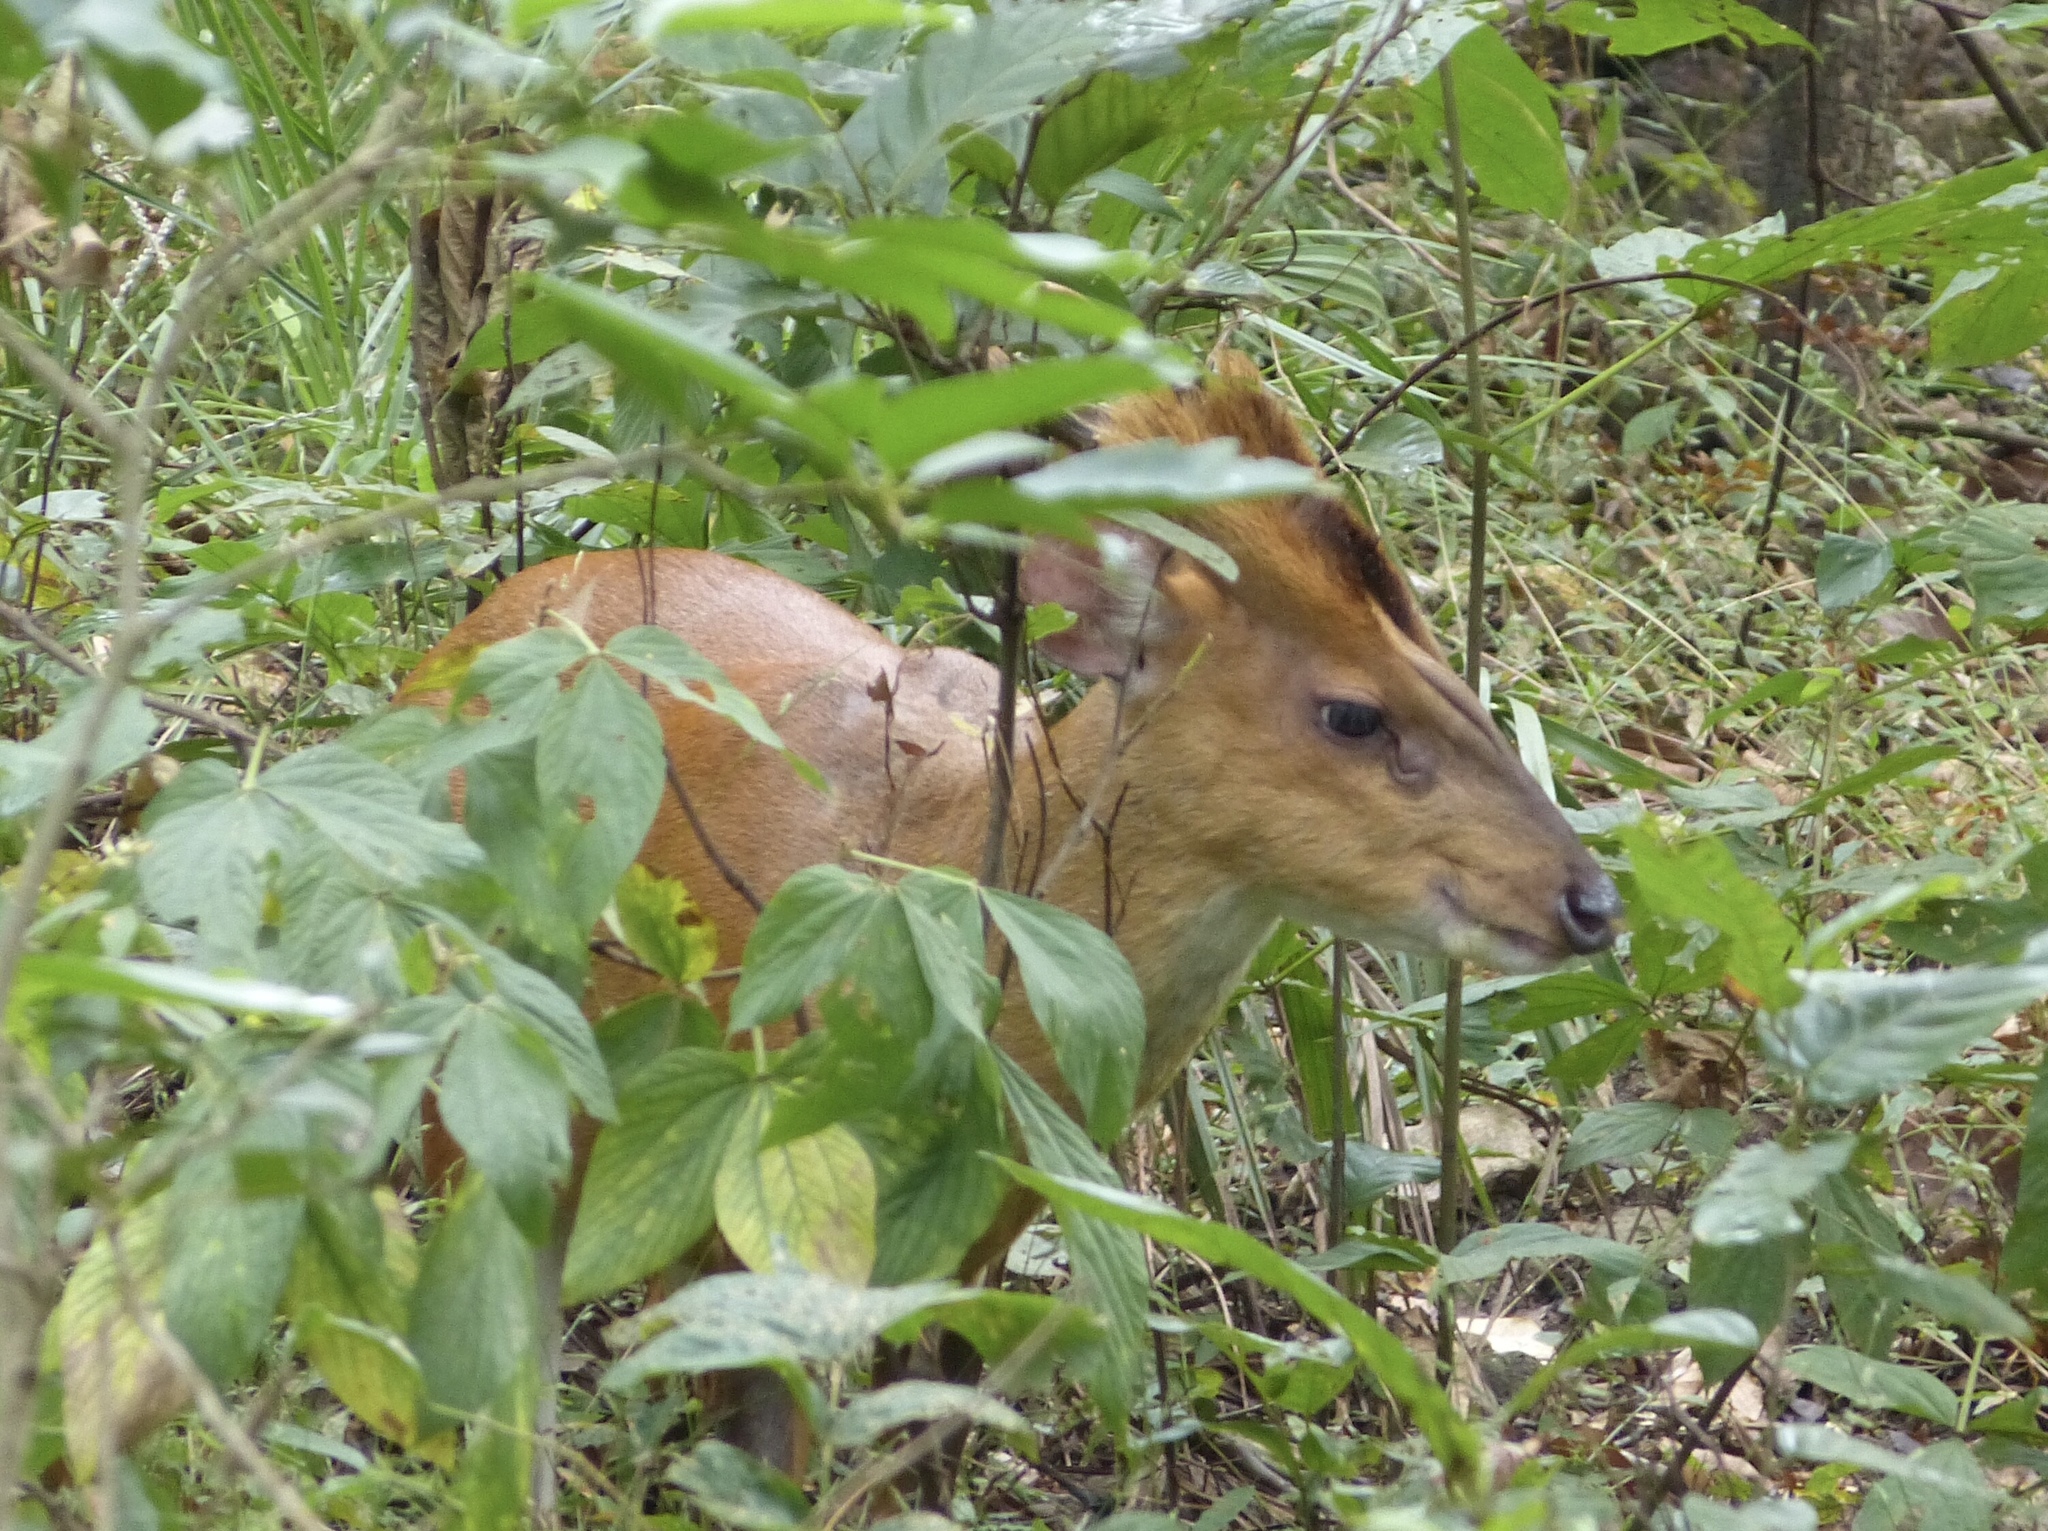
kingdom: Animalia
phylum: Chordata
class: Mammalia
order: Artiodactyla
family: Cervidae
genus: Muntiacus
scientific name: Muntiacus muntjak
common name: Indian muntjac
